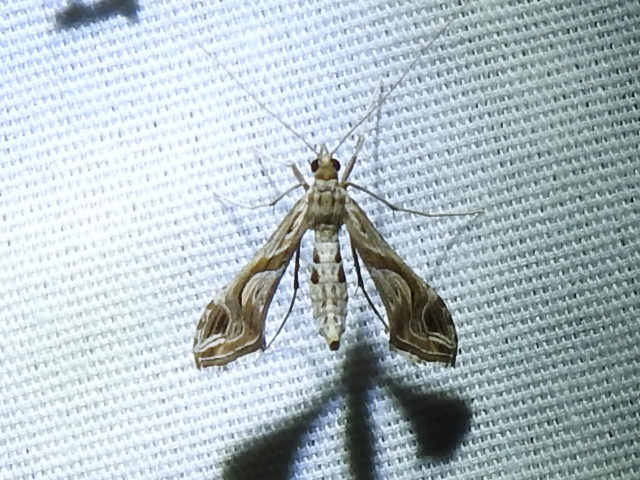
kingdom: Animalia
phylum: Arthropoda
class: Insecta
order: Lepidoptera
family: Crambidae
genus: Lineodes
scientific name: Lineodes integra
